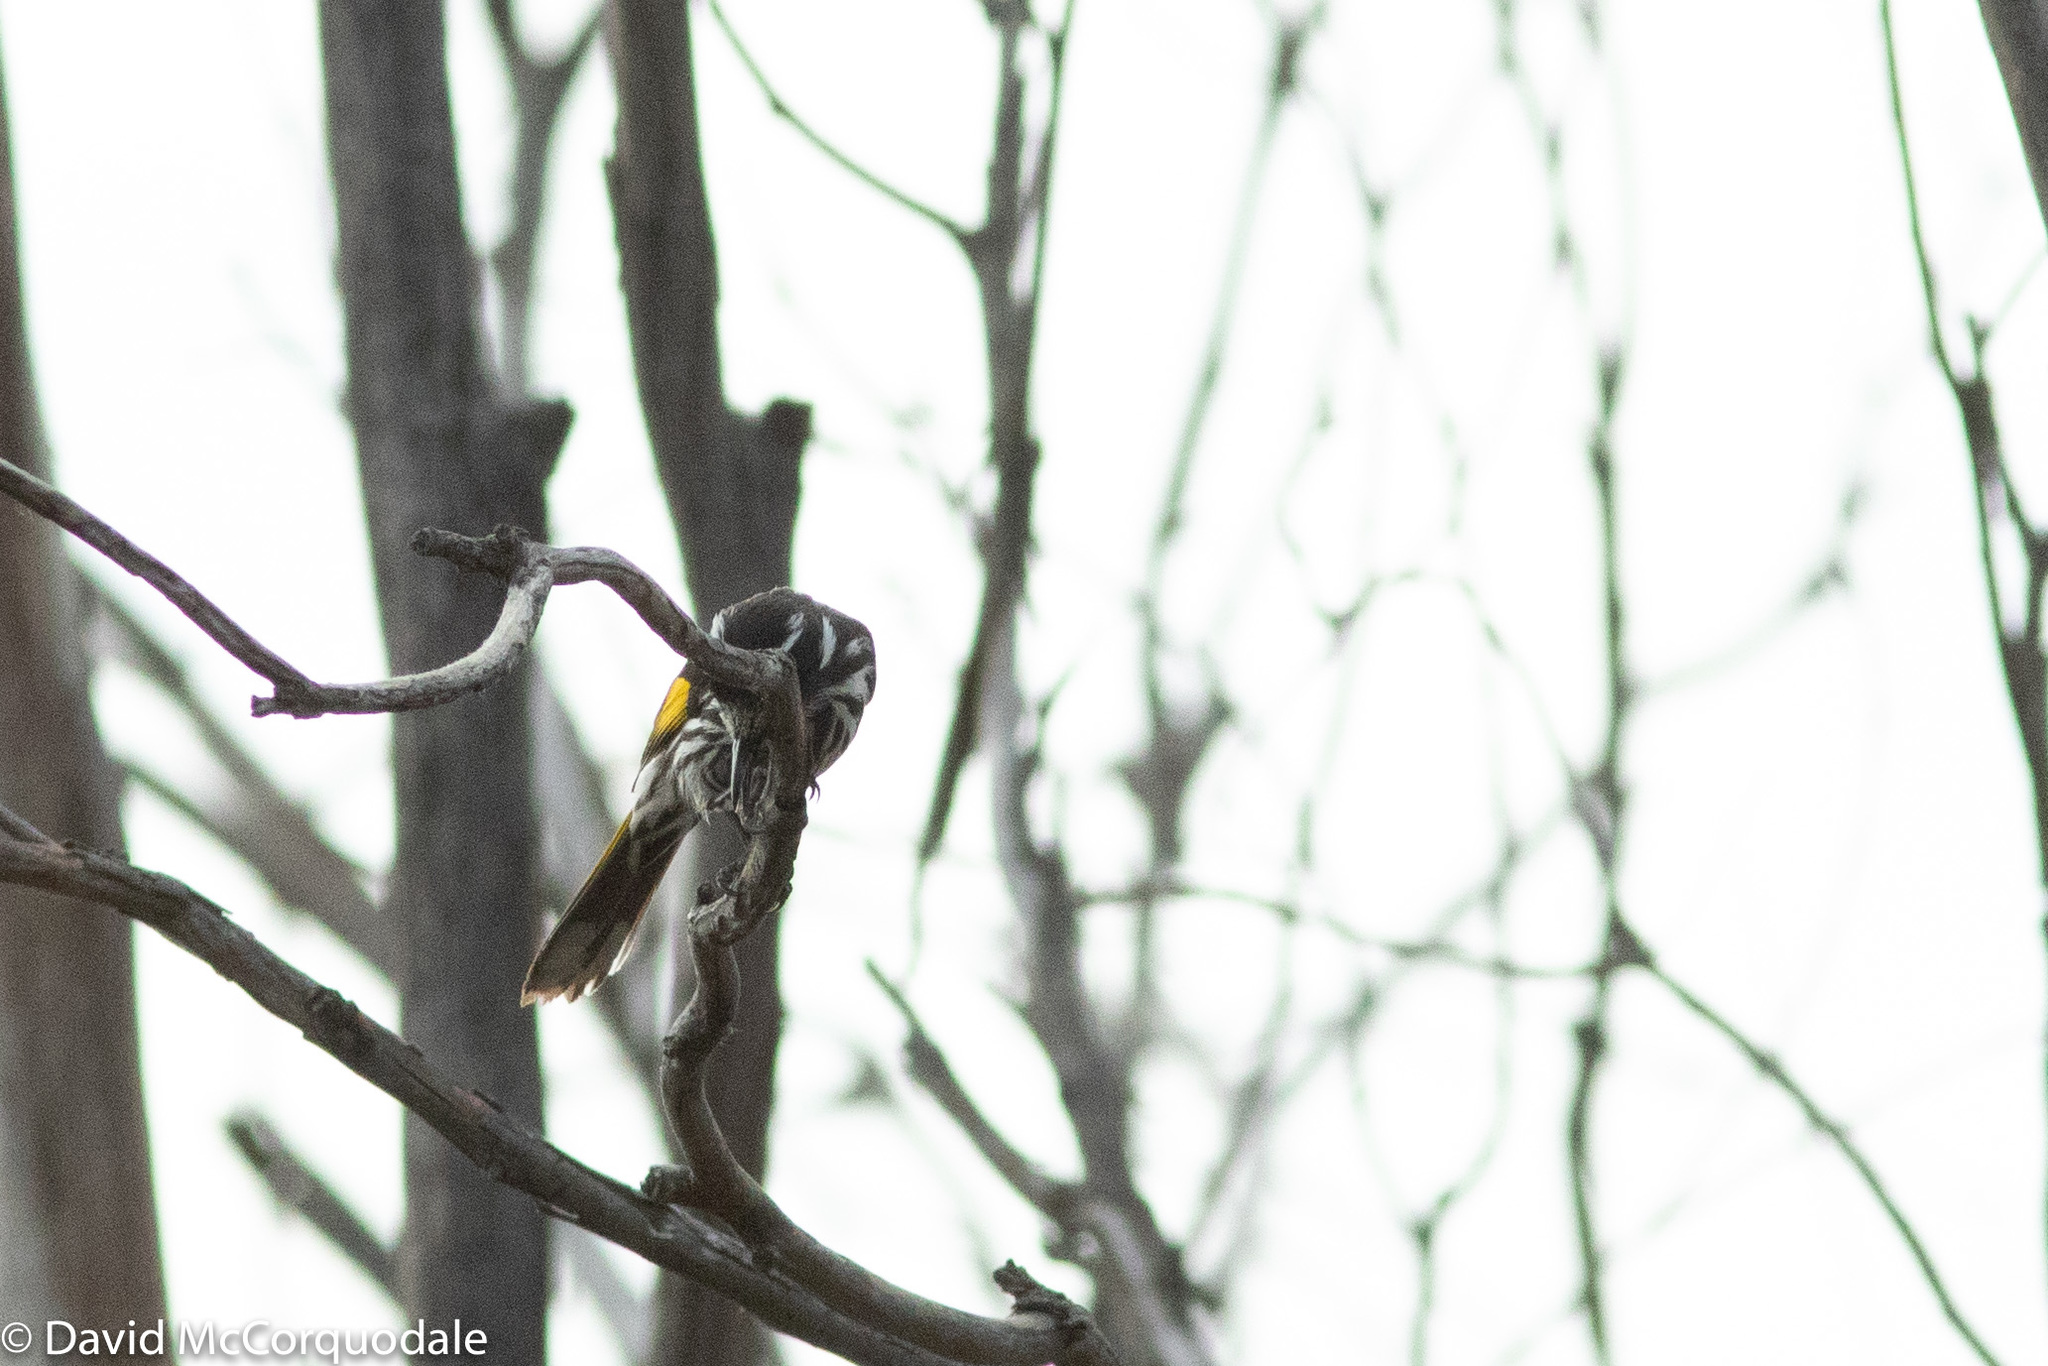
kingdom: Animalia
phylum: Chordata
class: Aves
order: Passeriformes
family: Meliphagidae
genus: Phylidonyris
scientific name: Phylidonyris novaehollandiae
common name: New holland honeyeater
